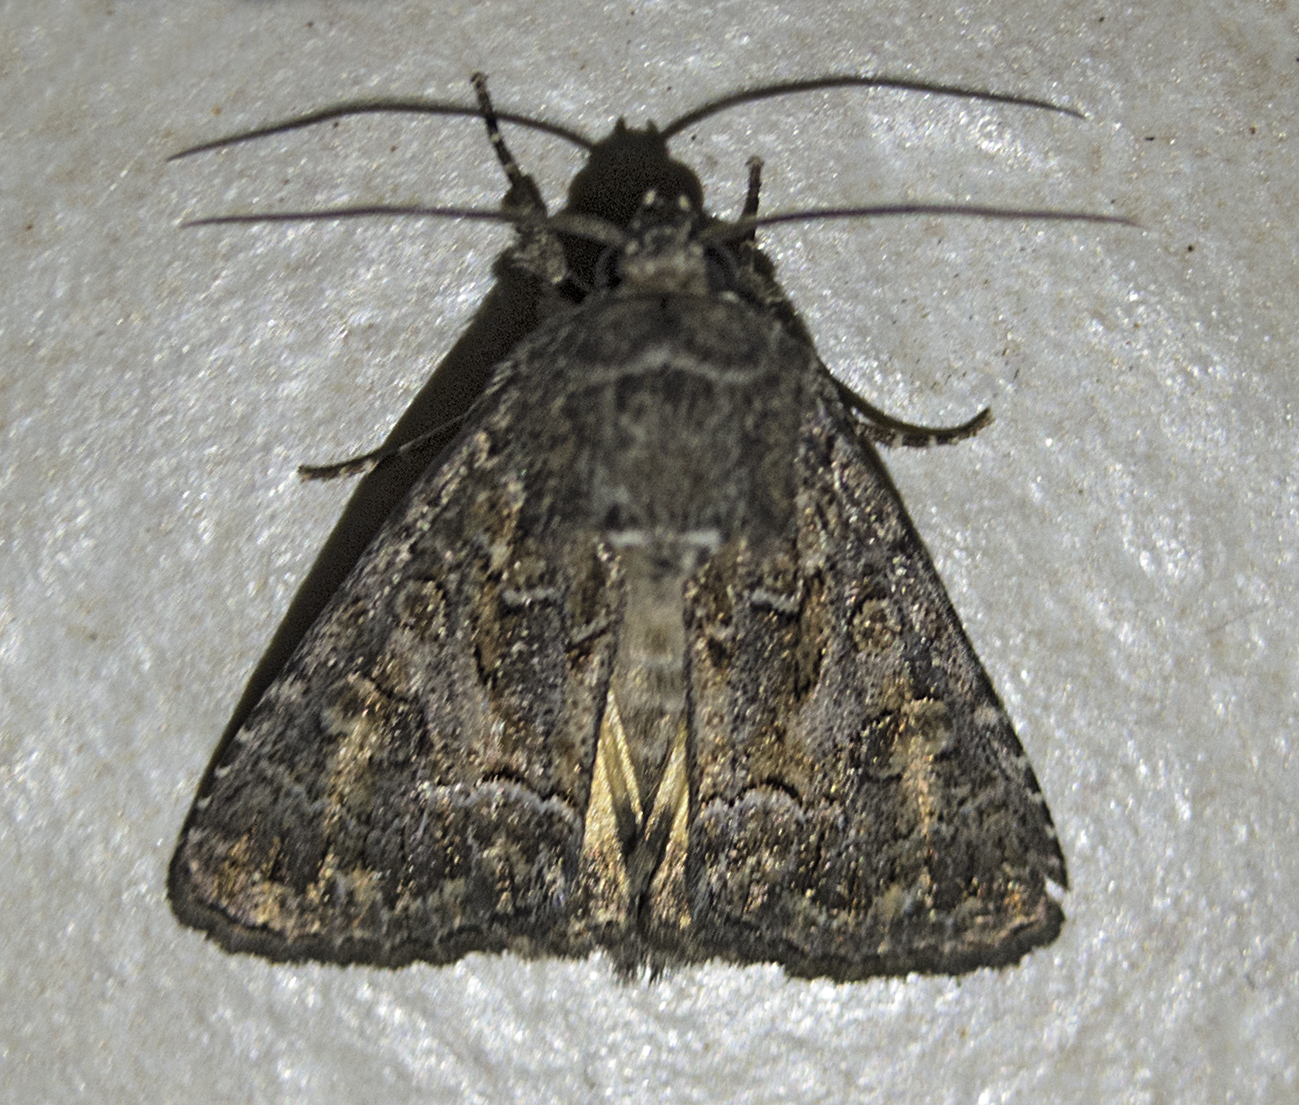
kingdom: Animalia
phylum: Arthropoda
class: Insecta
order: Lepidoptera
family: Noctuidae
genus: Thalpophila
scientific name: Thalpophila matura
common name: Straw underwing
